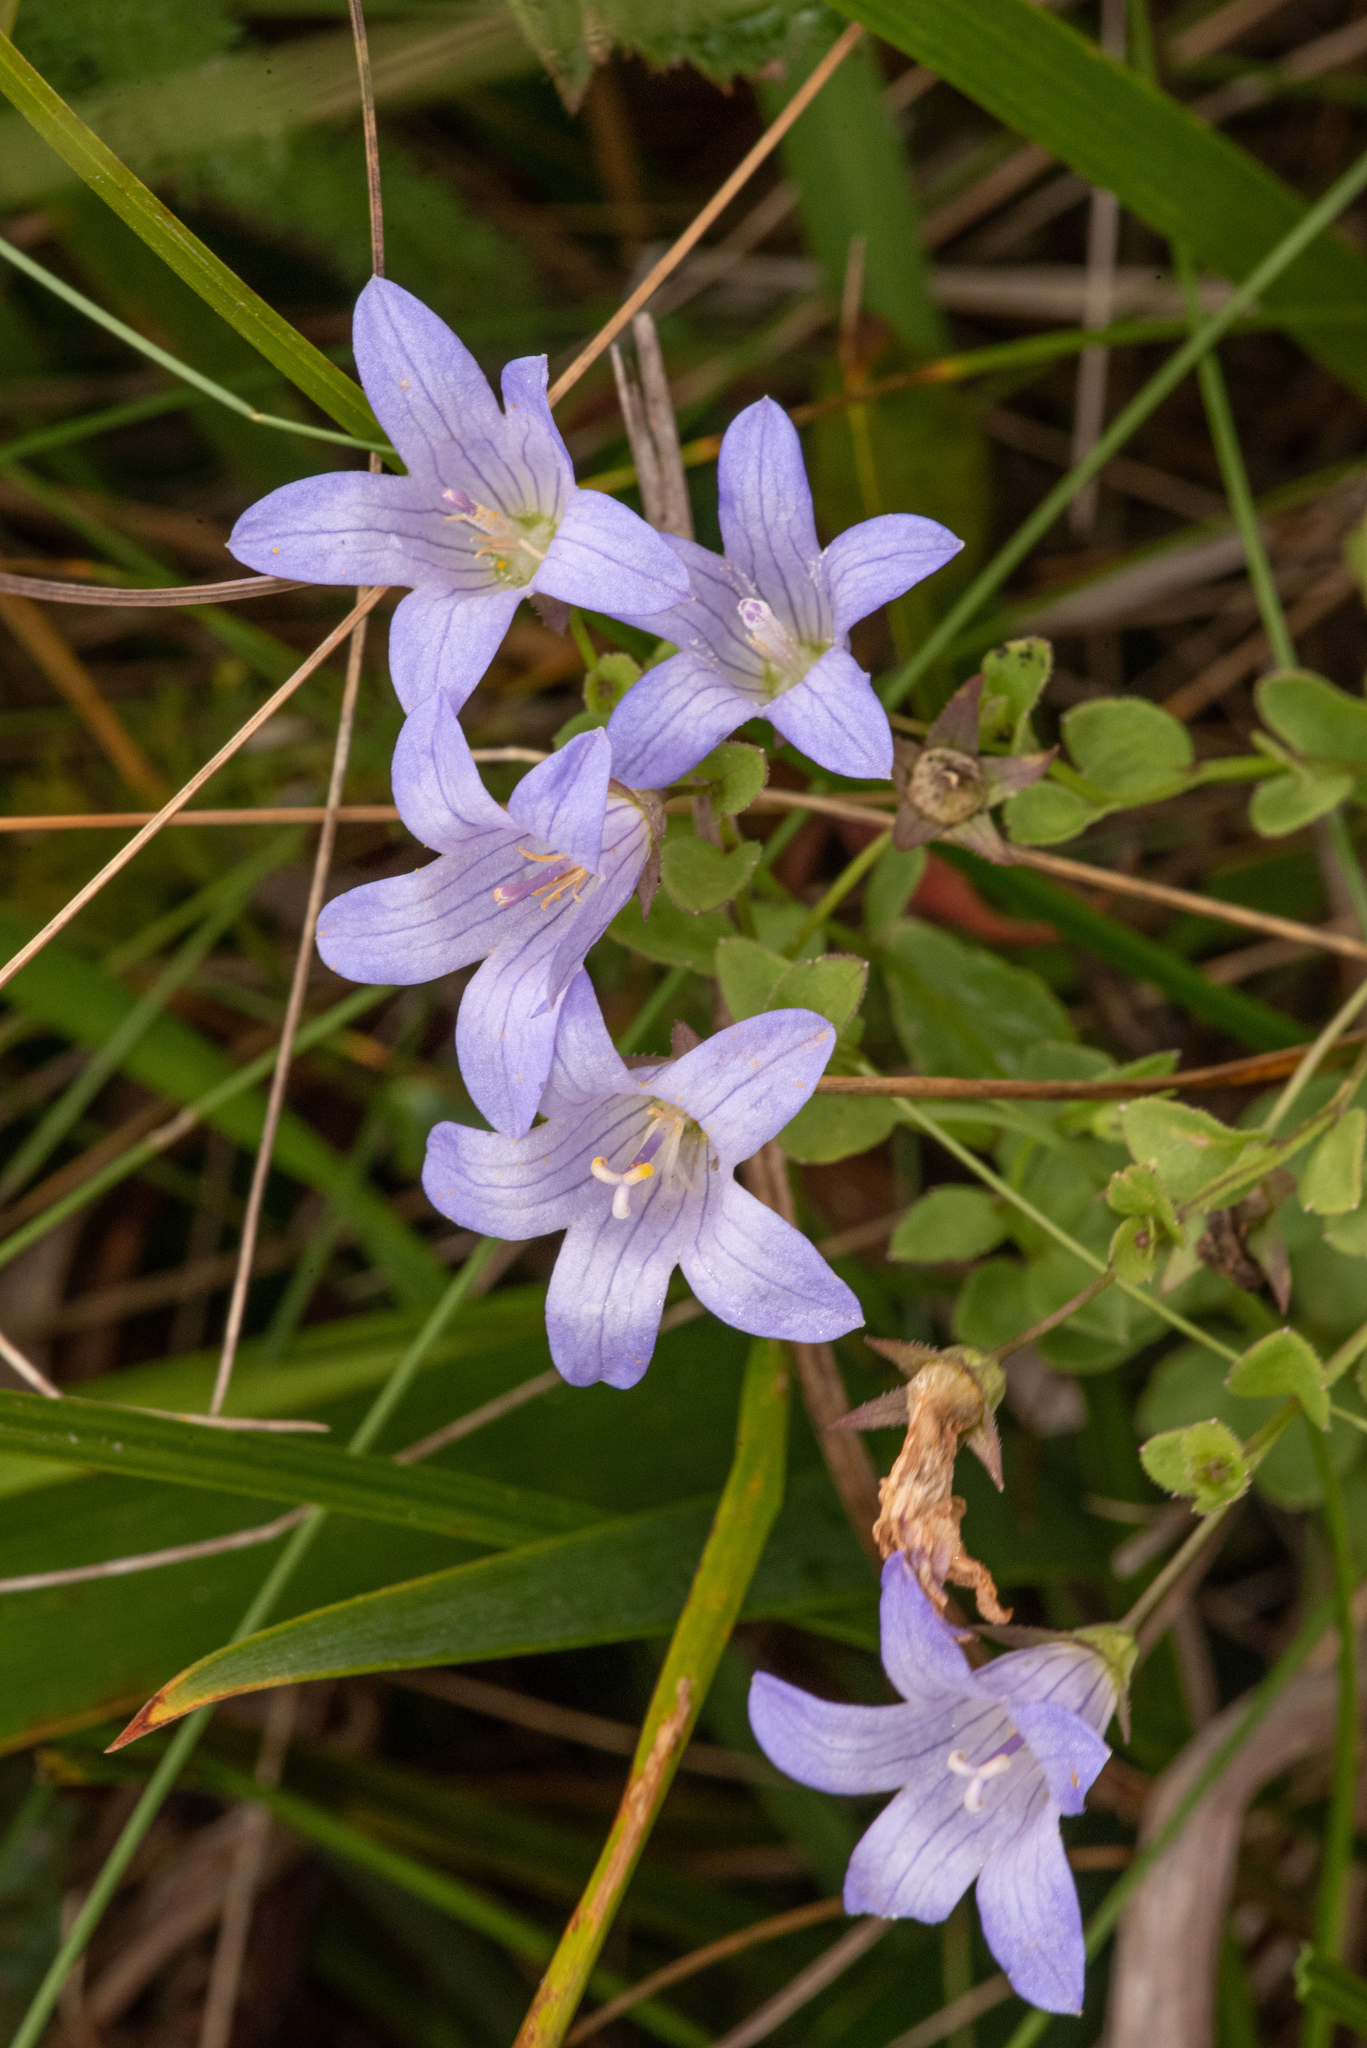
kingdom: Plantae
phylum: Tracheophyta
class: Magnoliopsida
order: Asterales
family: Campanulaceae
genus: Eastwoodiella
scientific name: Eastwoodiella californica
